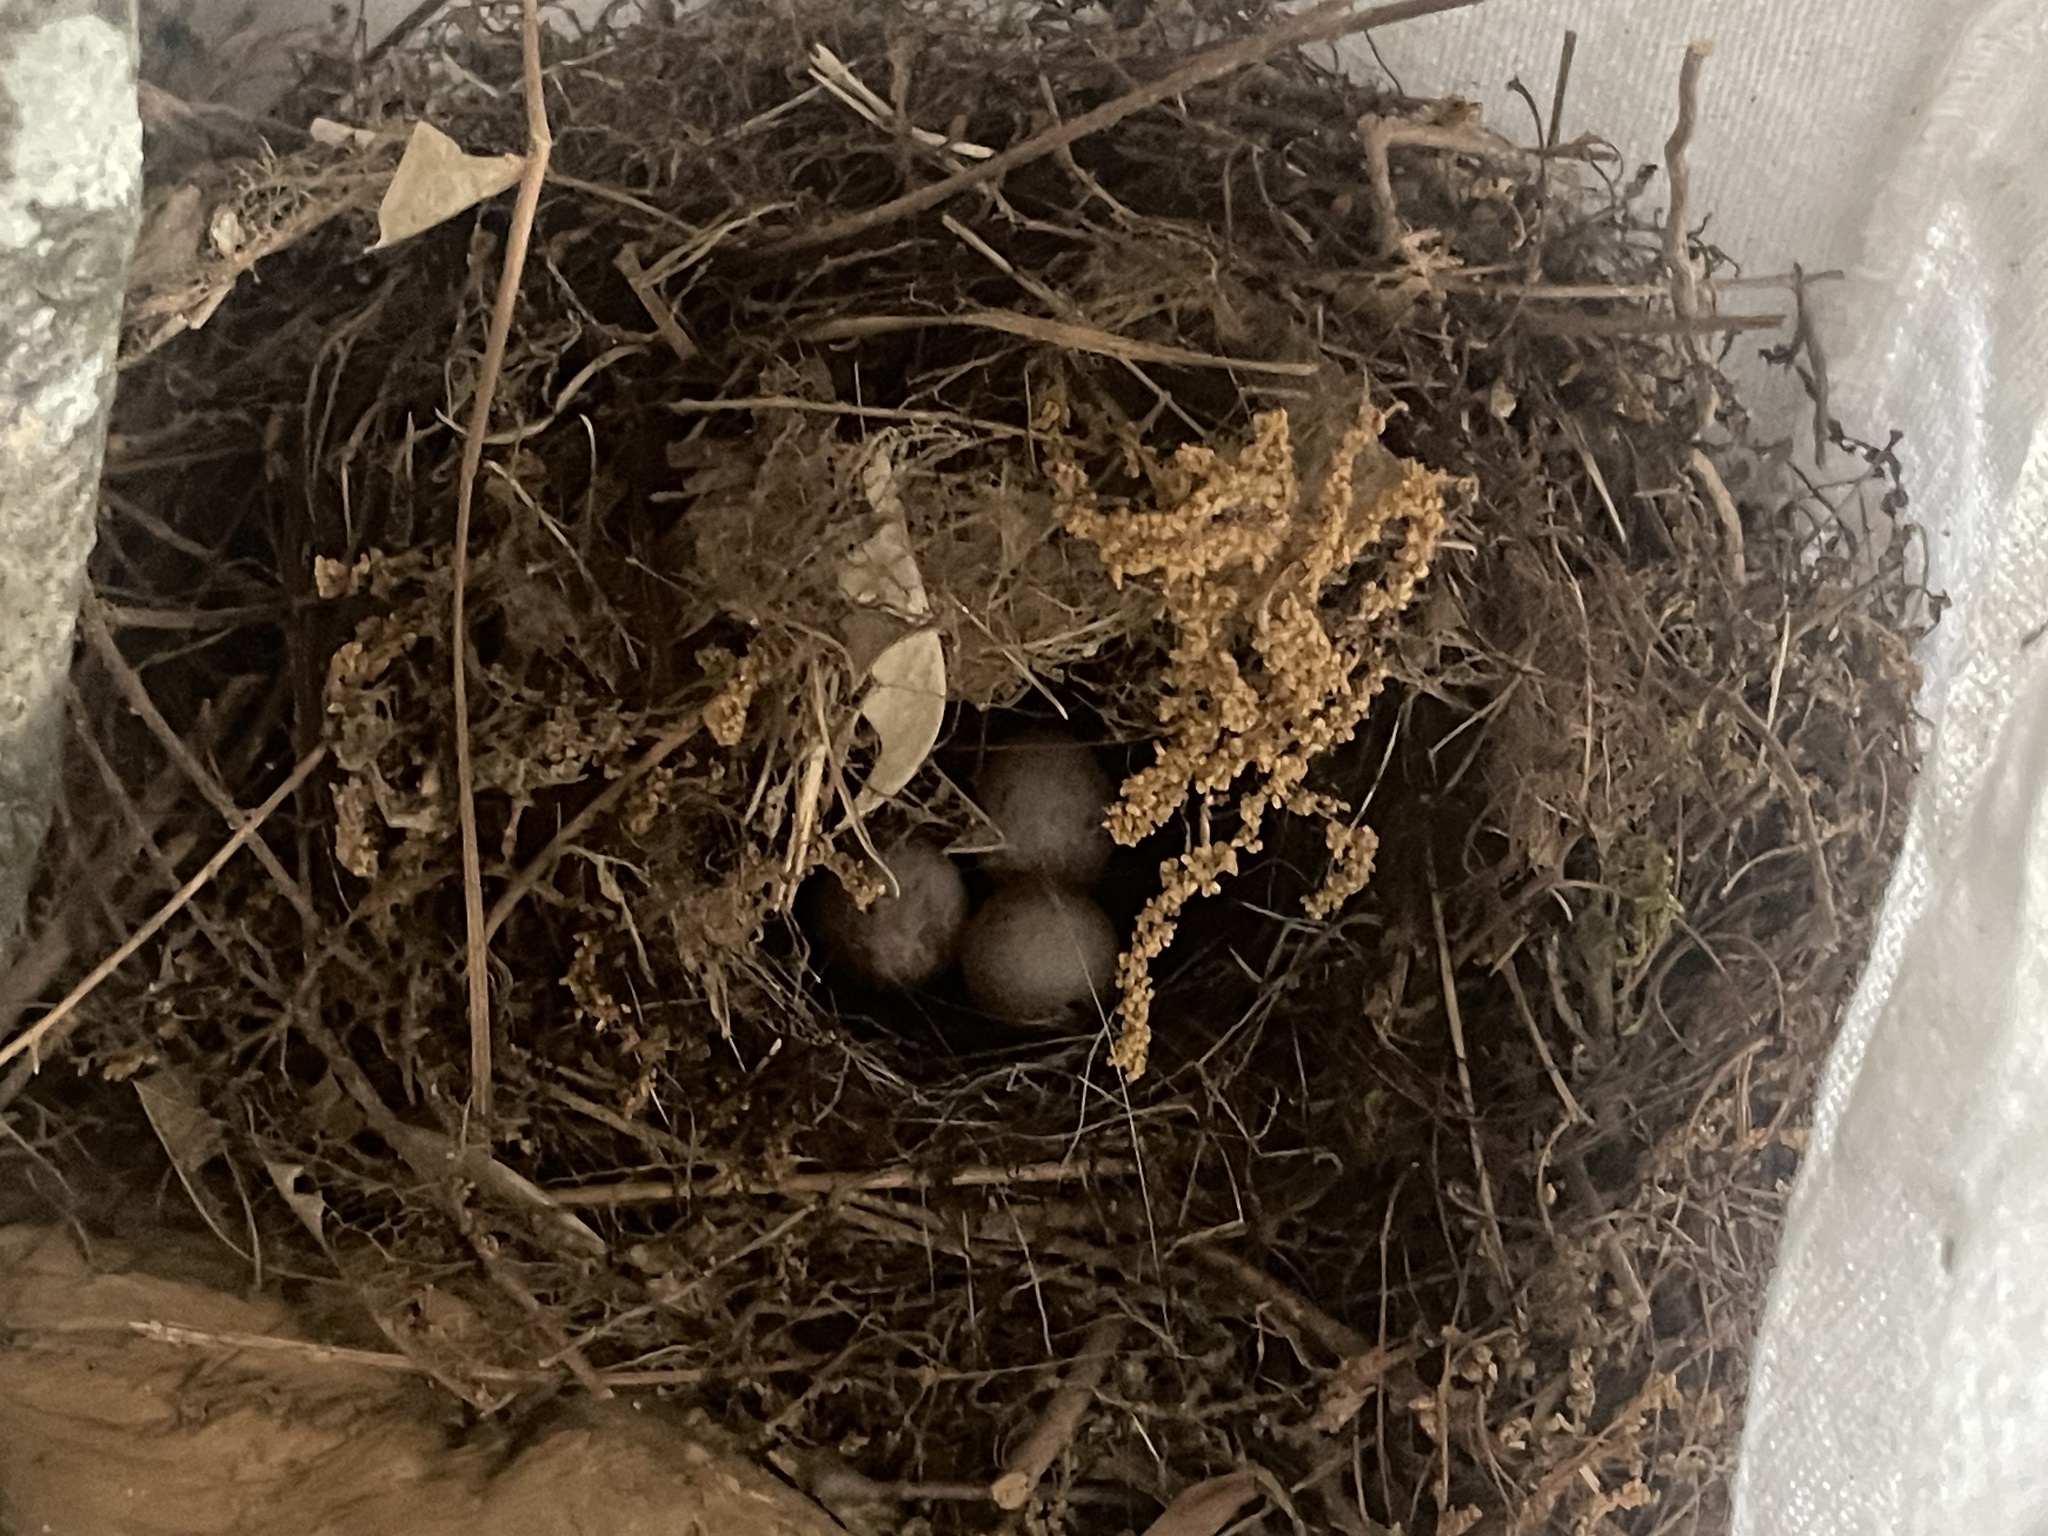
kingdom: Animalia
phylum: Chordata
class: Aves
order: Passeriformes
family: Troglodytidae
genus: Thryothorus
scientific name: Thryothorus ludovicianus
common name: Carolina wren
